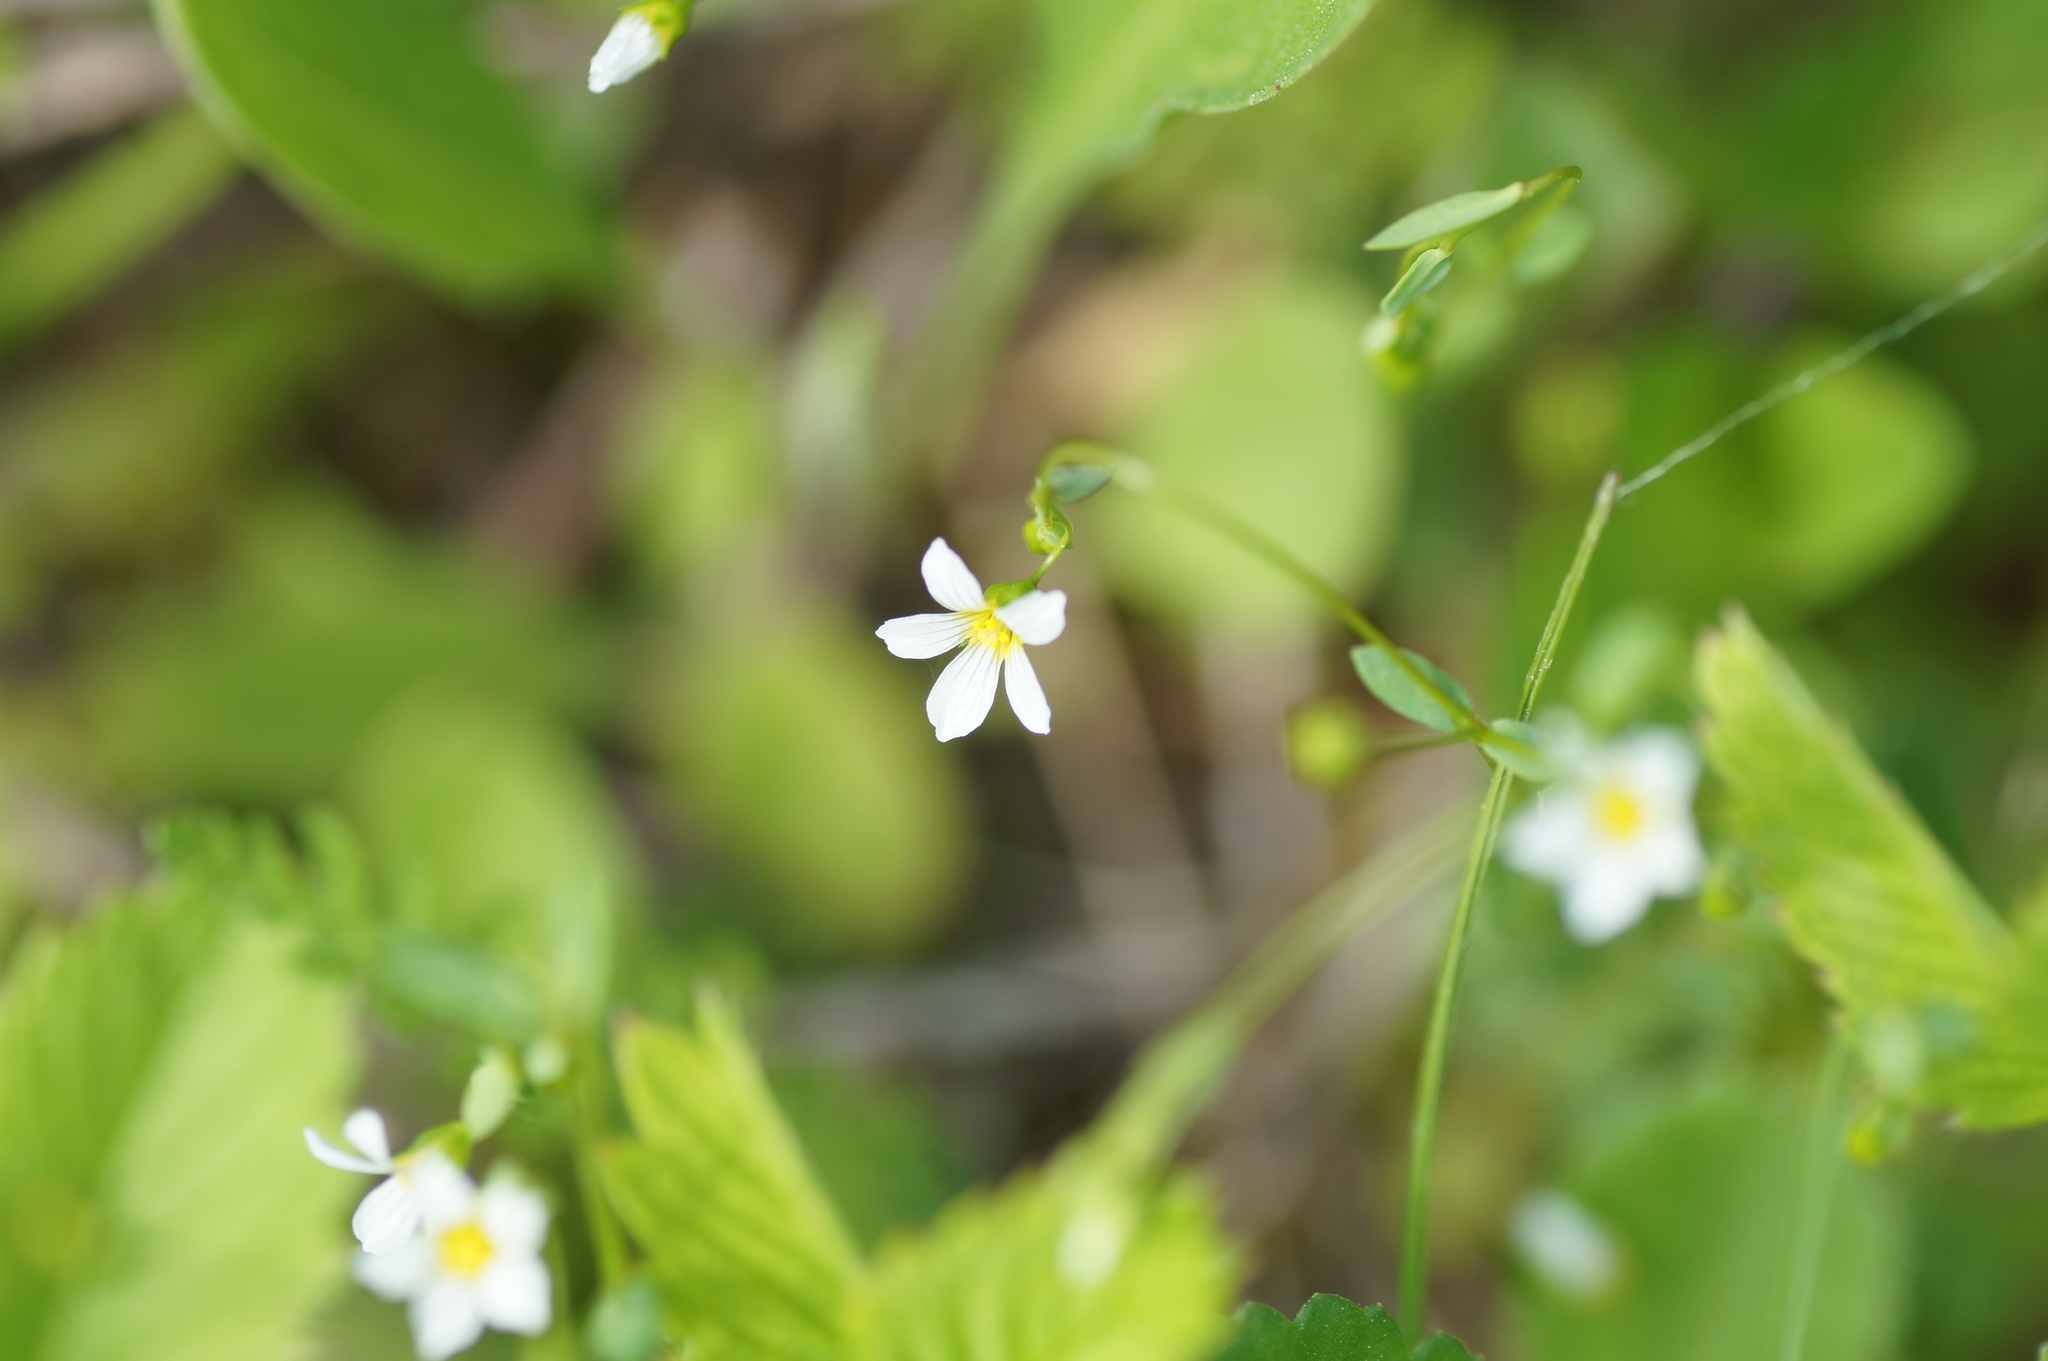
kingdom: Plantae
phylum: Tracheophyta
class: Magnoliopsida
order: Malpighiales
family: Linaceae
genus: Linum
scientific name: Linum catharticum
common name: Fairy flax
